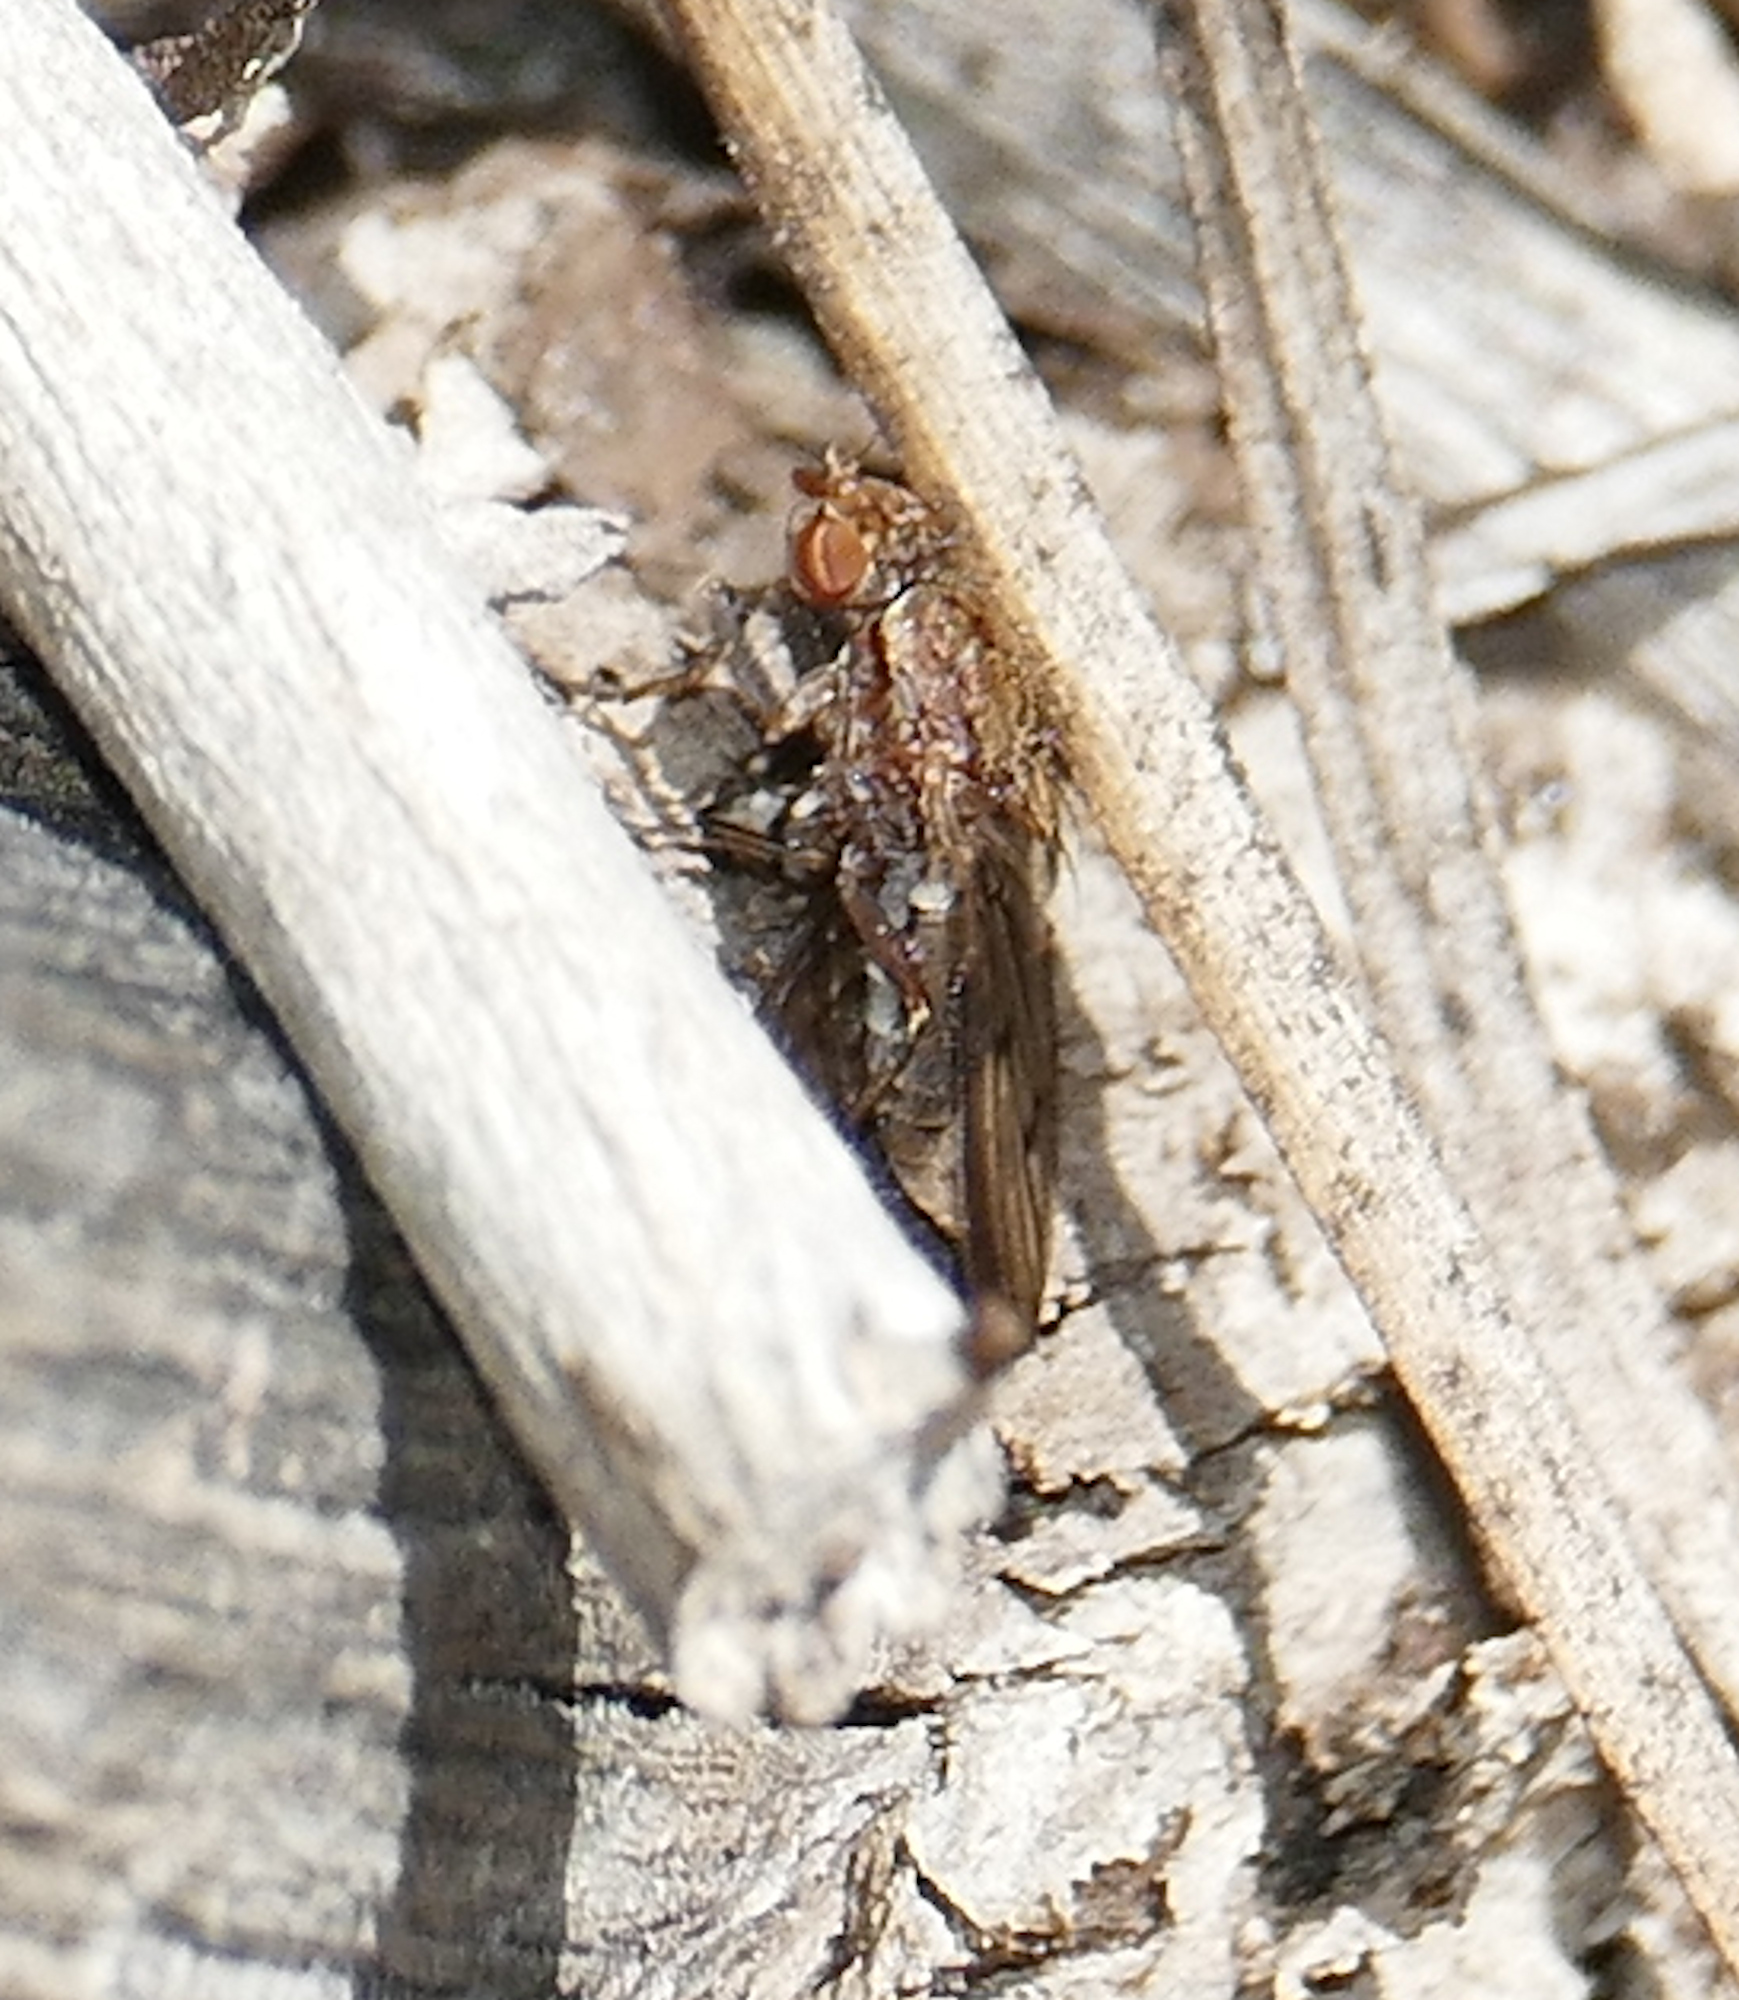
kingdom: Animalia
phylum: Arthropoda
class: Insecta
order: Diptera
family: Heleomyzidae
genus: Suillia
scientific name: Suillia barberi
